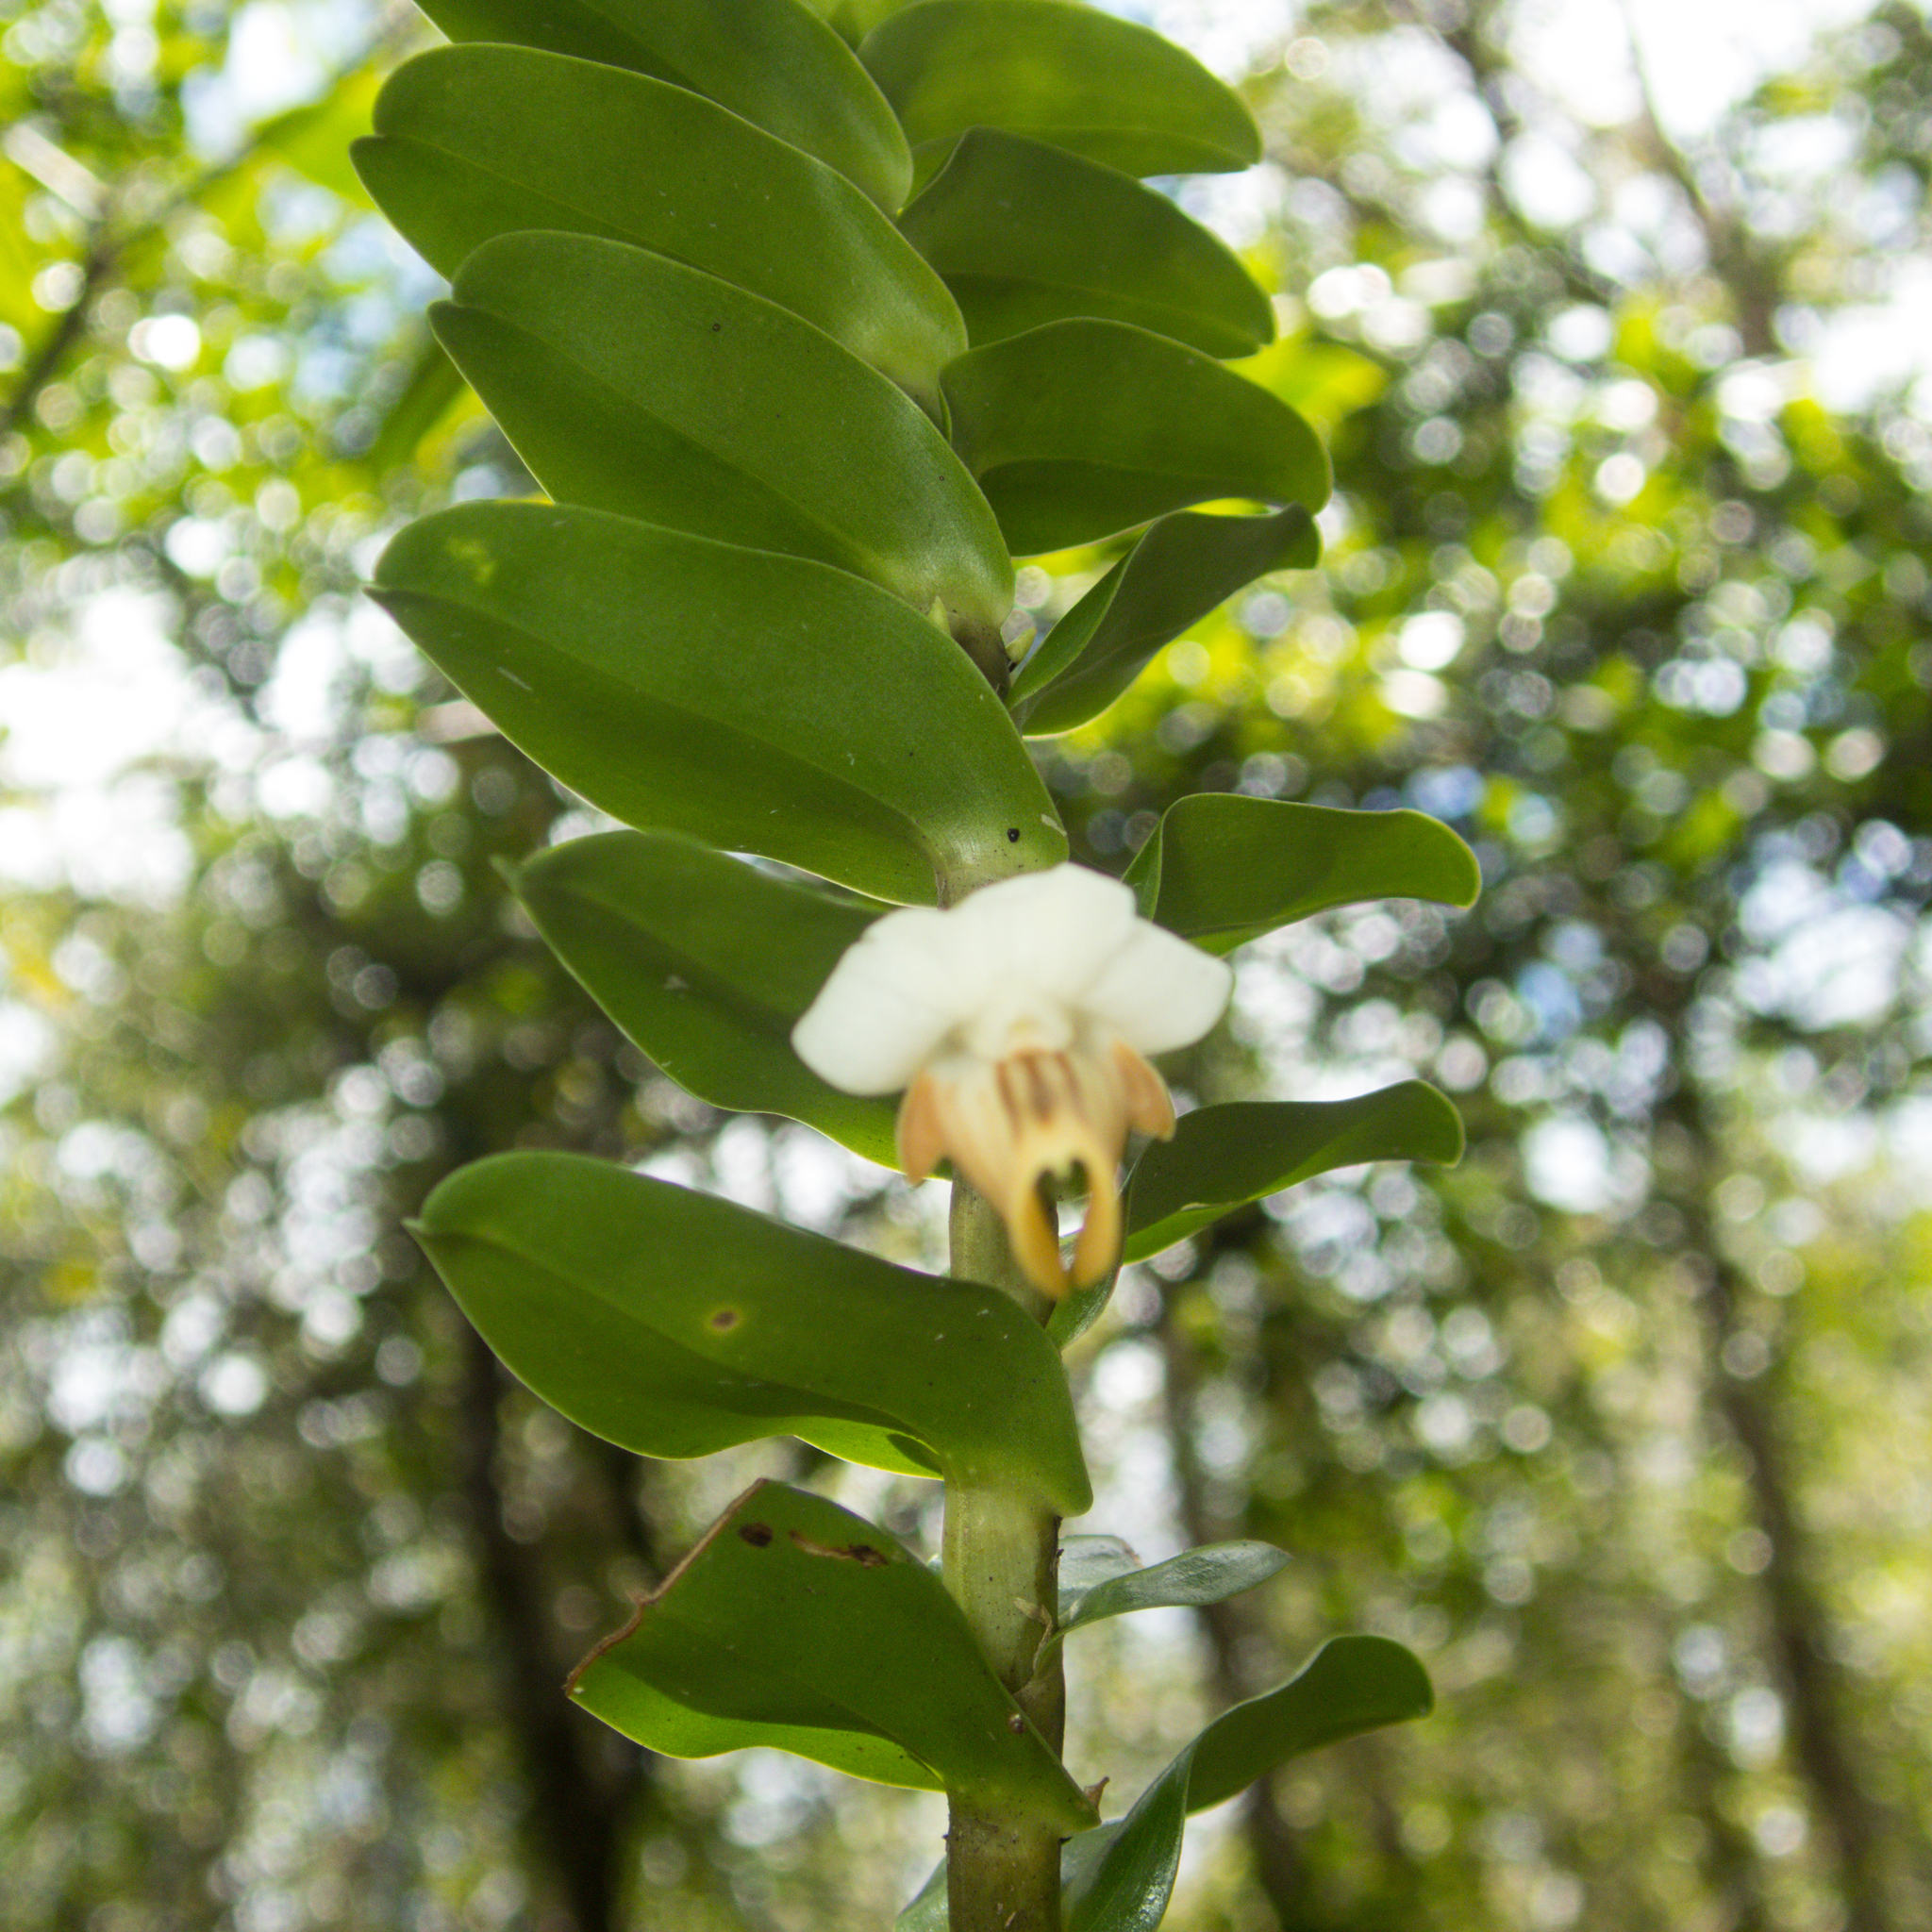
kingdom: Plantae
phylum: Tracheophyta
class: Liliopsida
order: Asparagales
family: Orchidaceae
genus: Dendrobium
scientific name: Dendrobium ellipsophyllum
